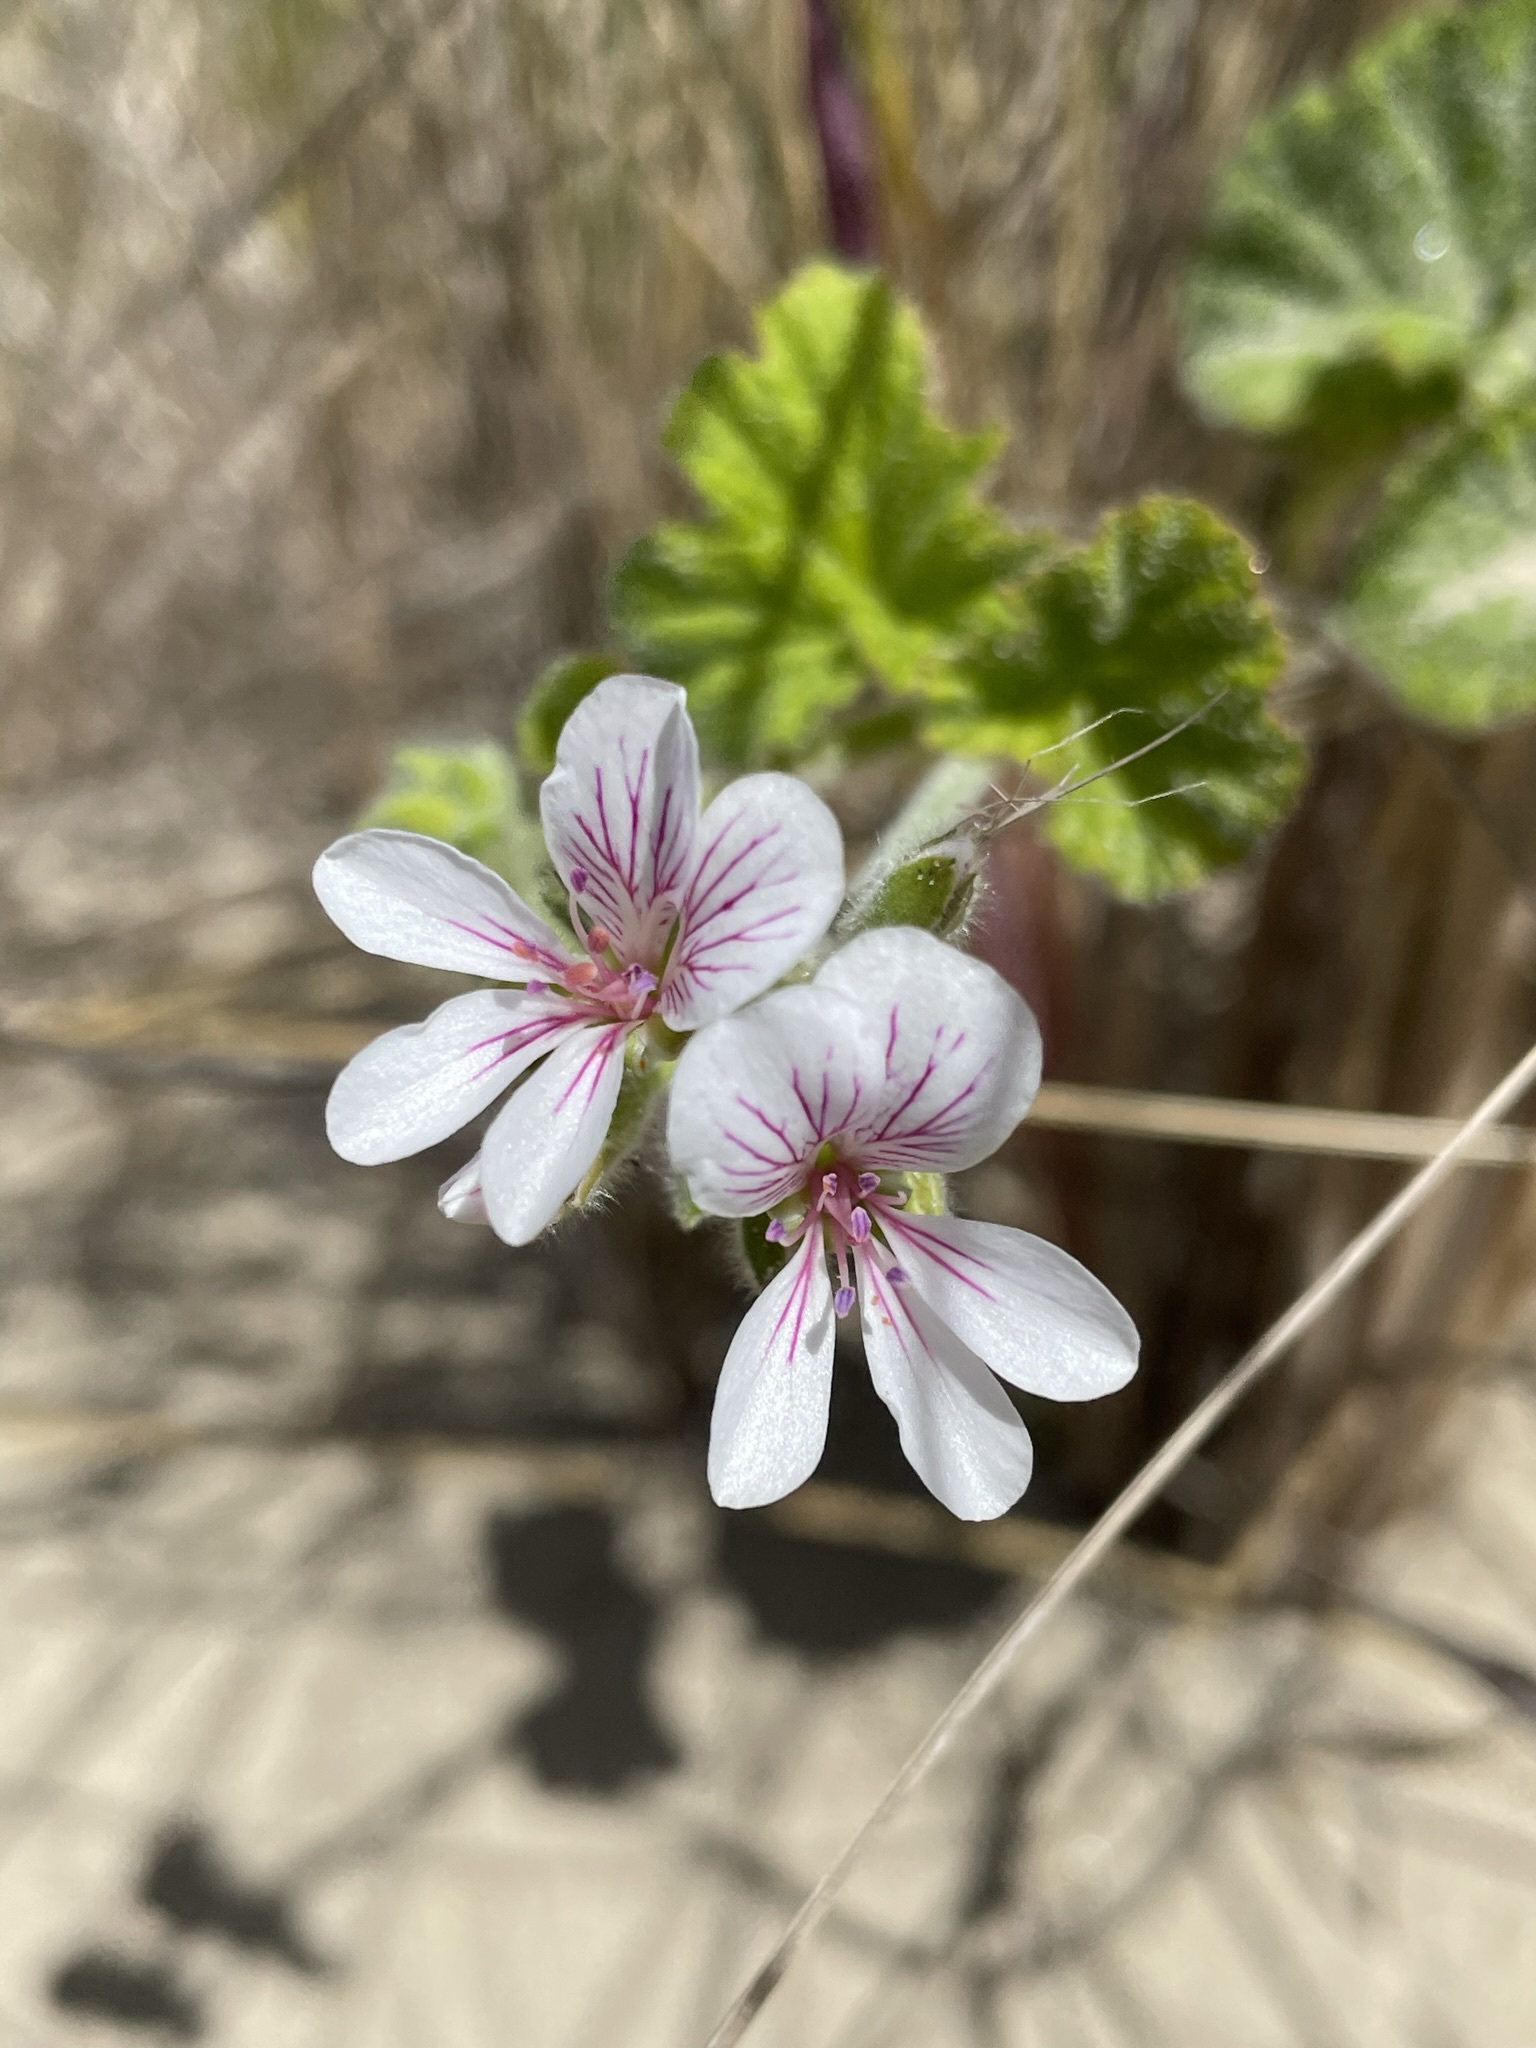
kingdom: Plantae
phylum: Tracheophyta
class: Magnoliopsida
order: Geraniales
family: Geraniaceae
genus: Pelargonium
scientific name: Pelargonium australe
